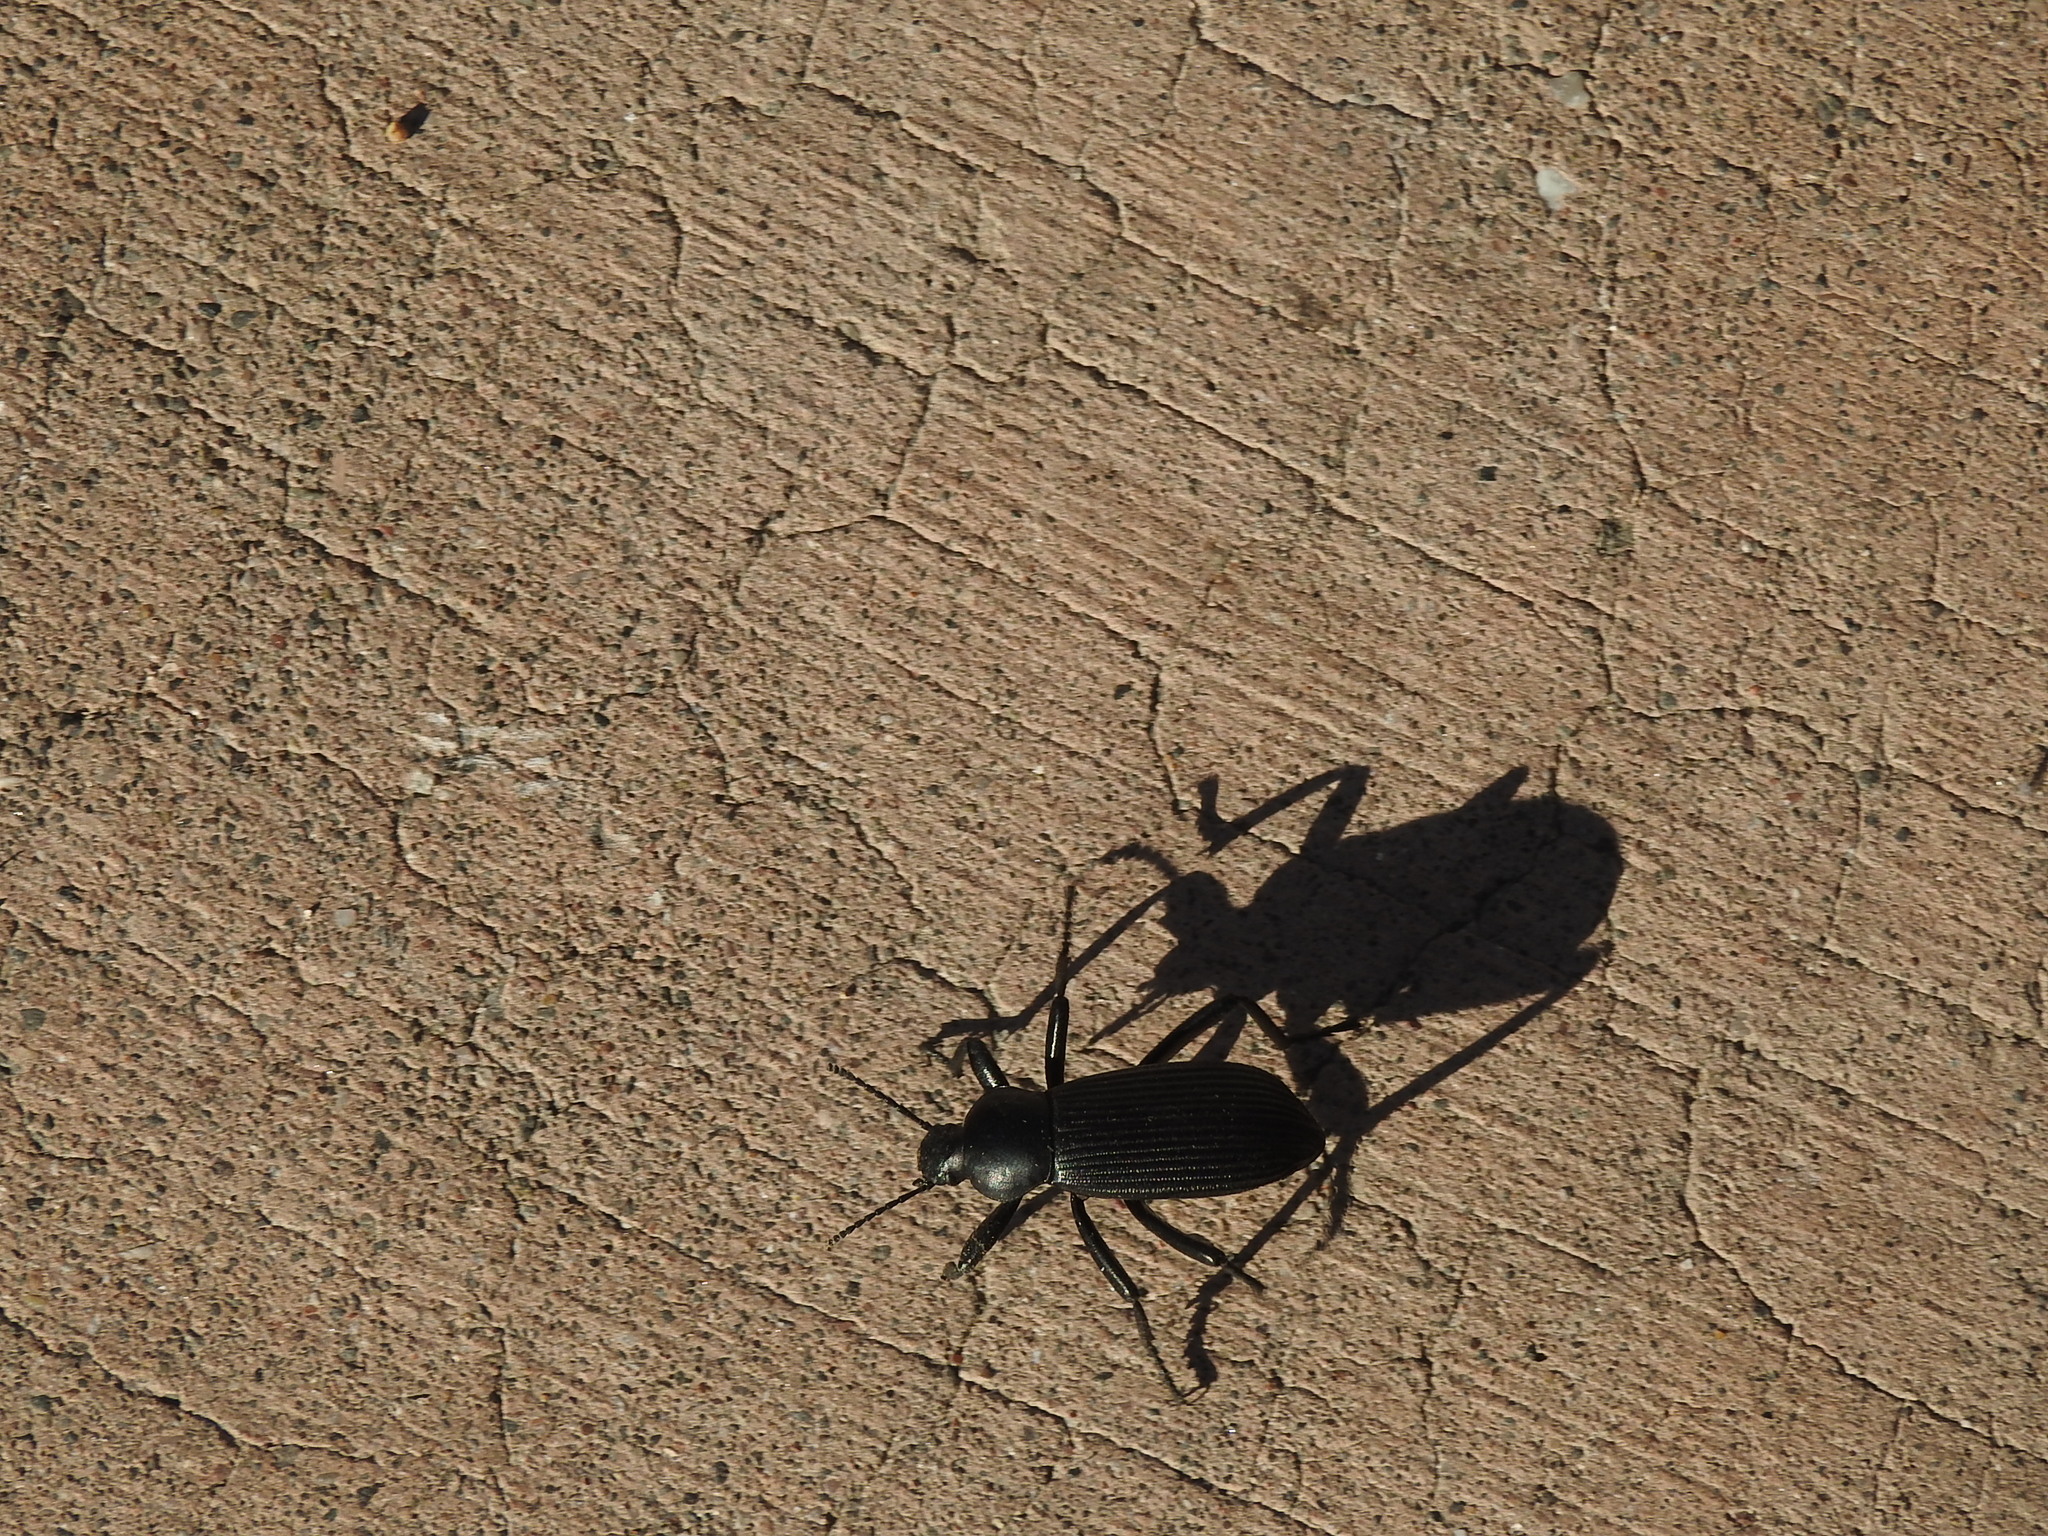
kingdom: Animalia
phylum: Arthropoda
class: Insecta
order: Coleoptera
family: Tenebrionidae
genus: Eleodes
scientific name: Eleodes obscura
